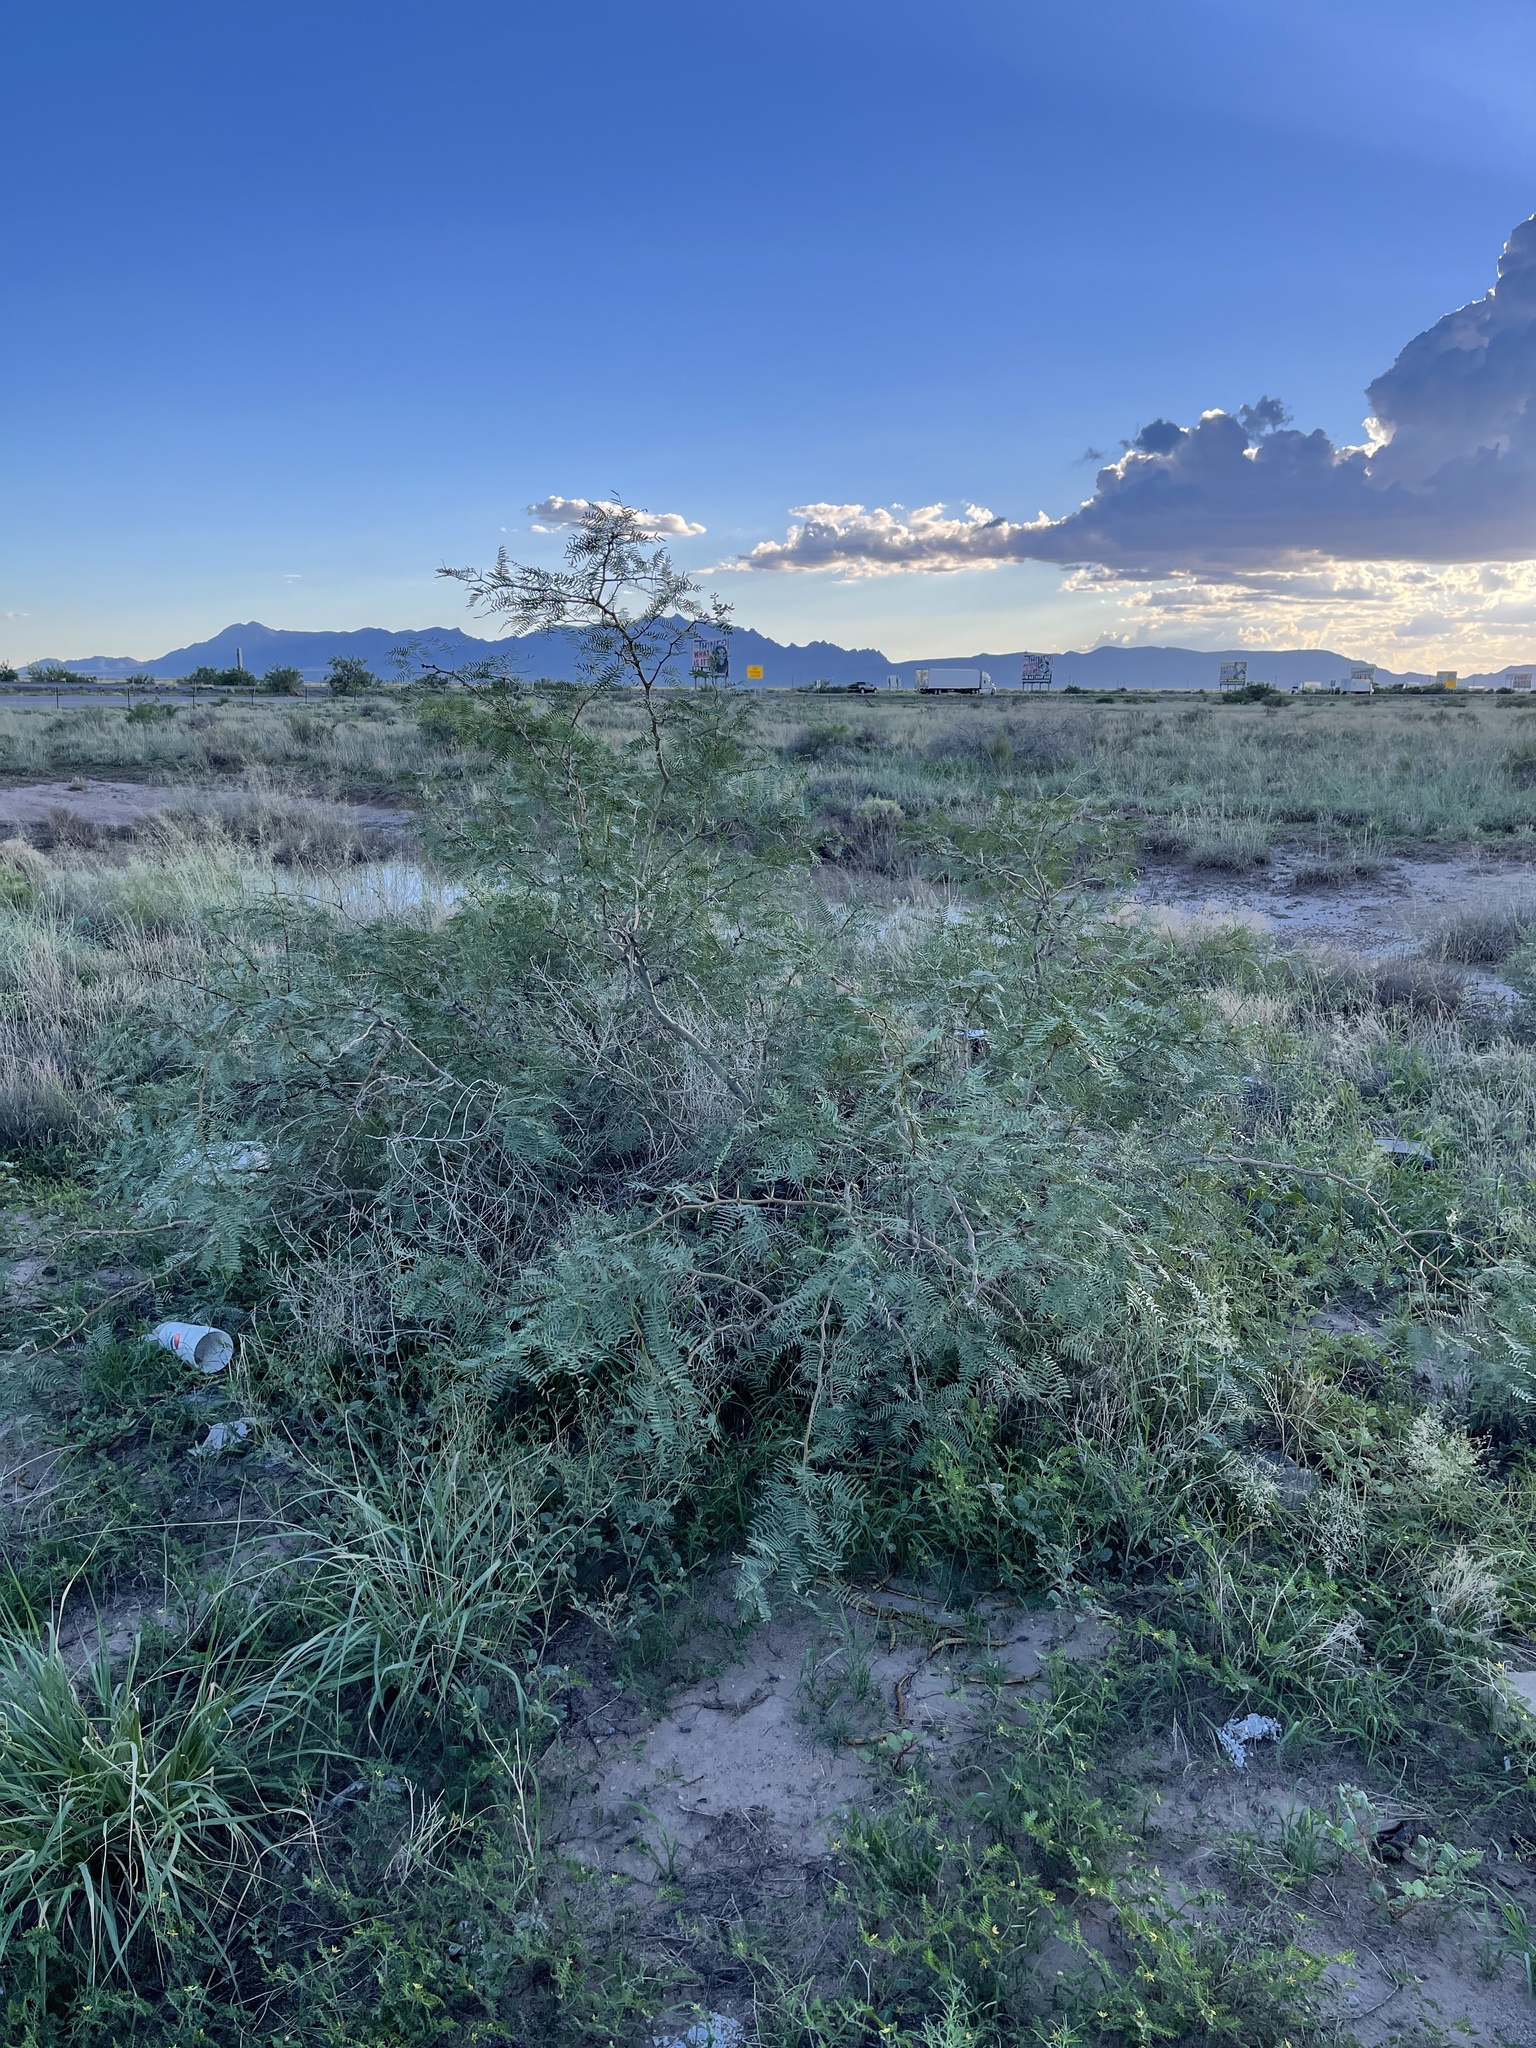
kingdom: Plantae
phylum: Tracheophyta
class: Magnoliopsida
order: Fabales
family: Fabaceae
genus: Prosopis
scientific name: Prosopis glandulosa
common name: Honey mesquite
